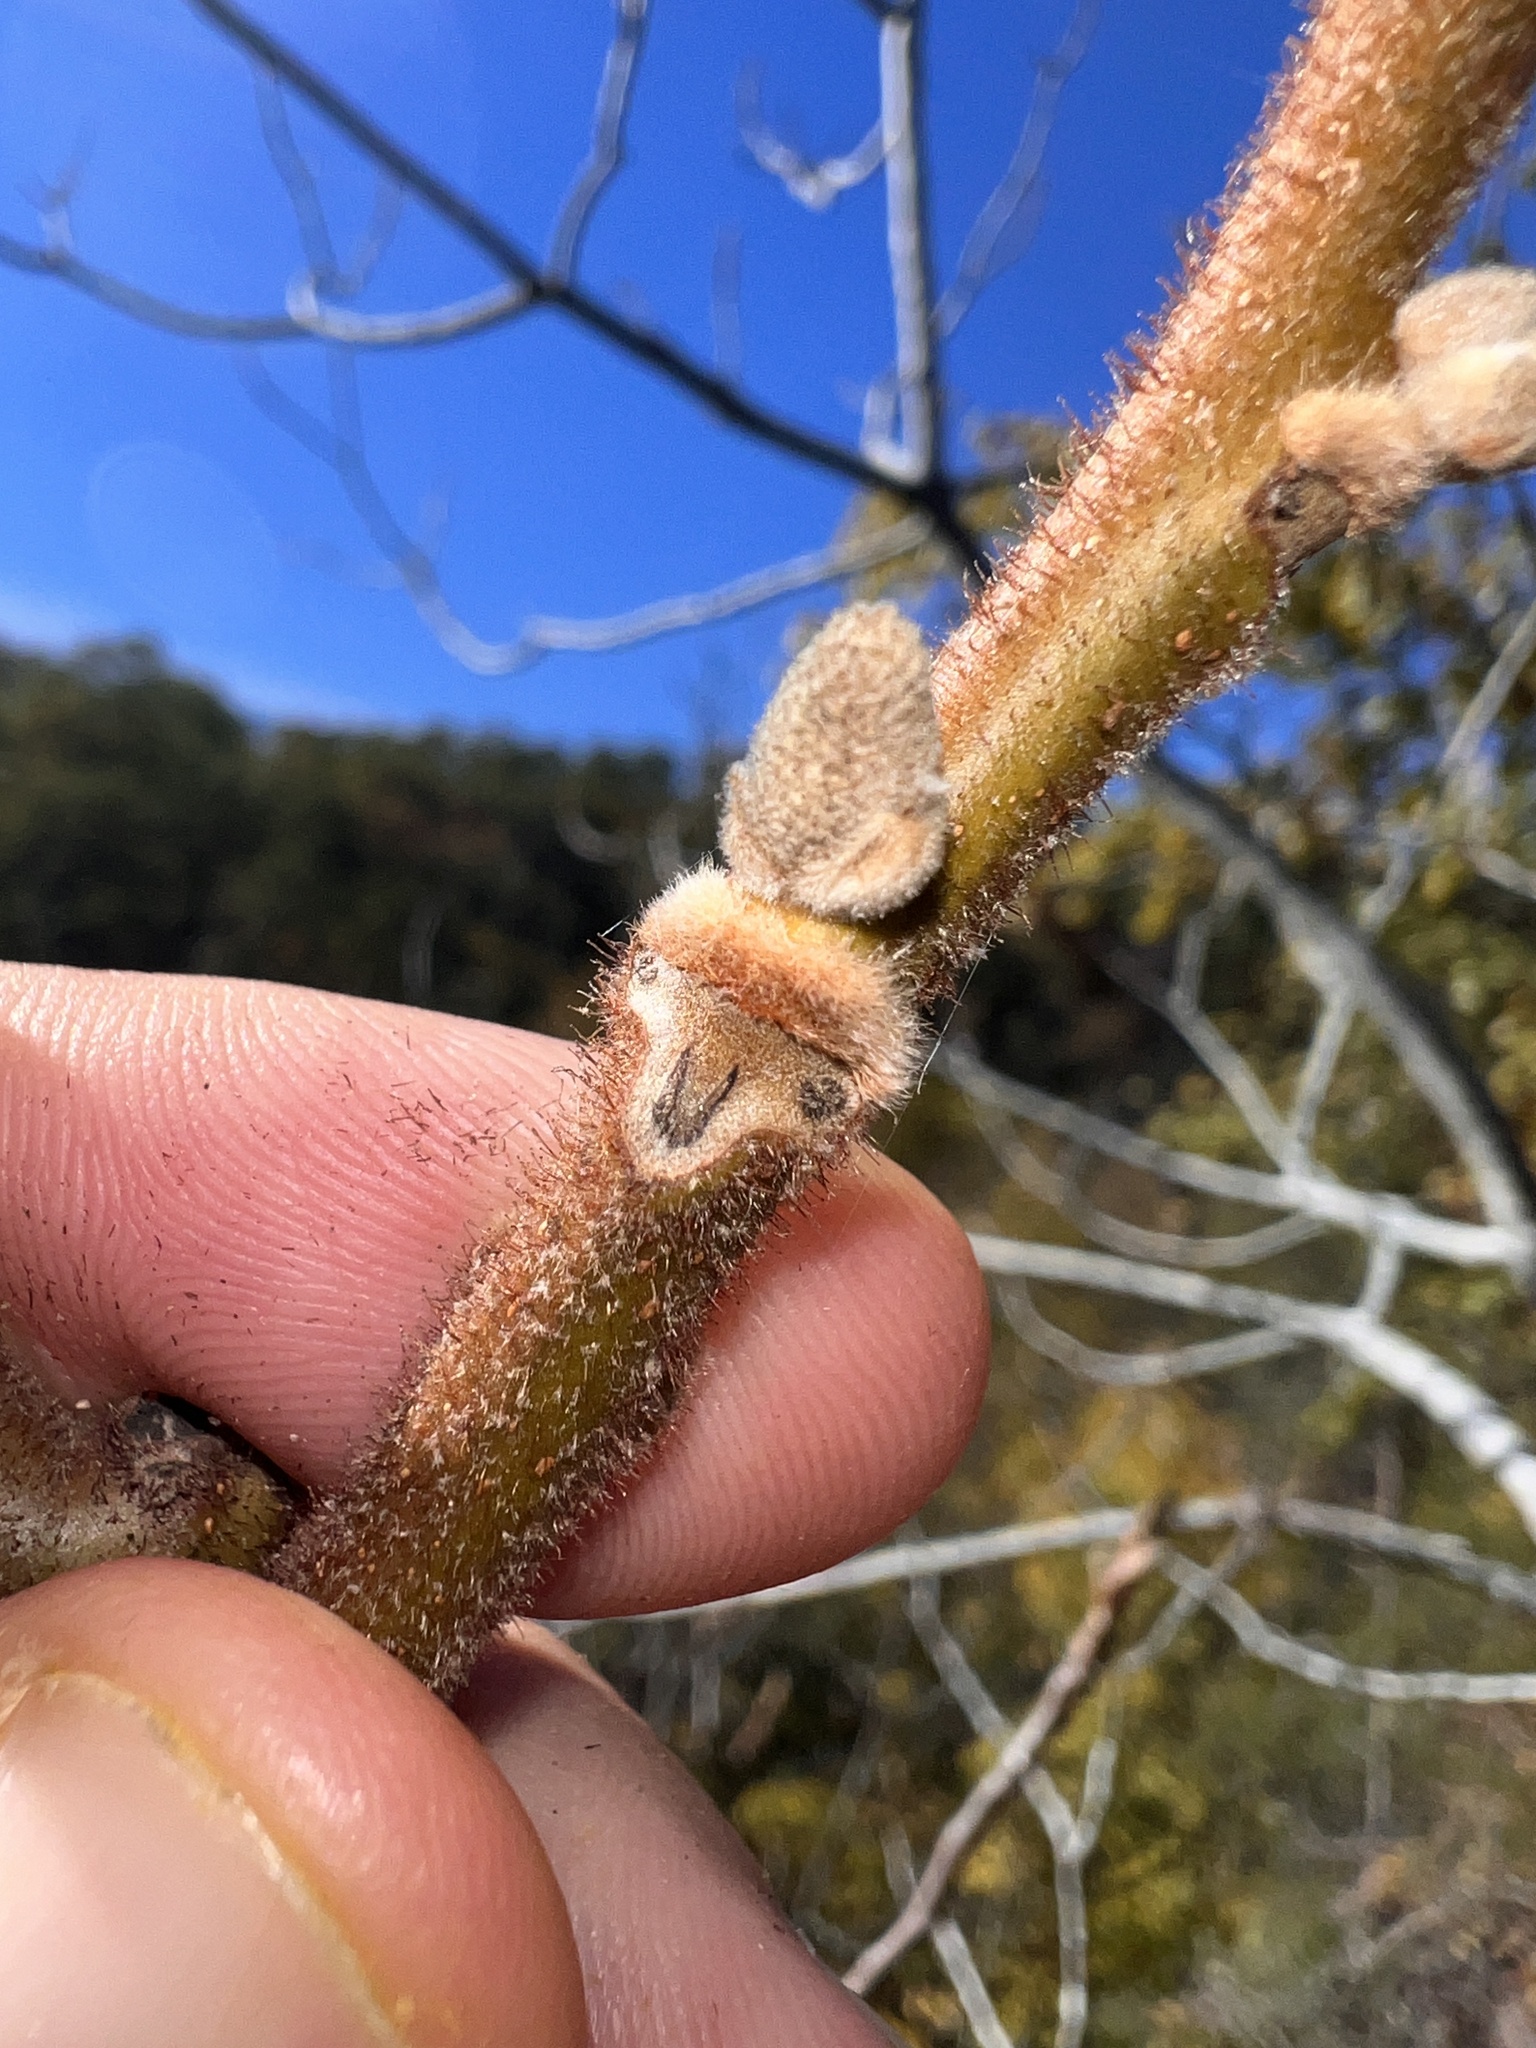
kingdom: Plantae
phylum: Tracheophyta
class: Magnoliopsida
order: Fagales
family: Juglandaceae
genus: Juglans
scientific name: Juglans cinerea
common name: Butternut
